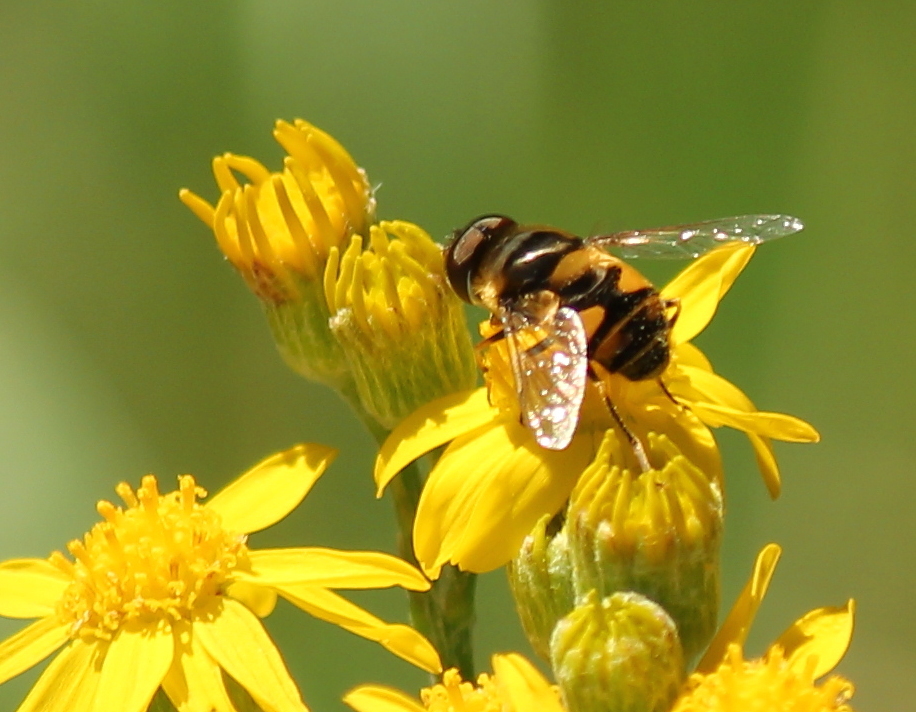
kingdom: Animalia
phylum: Arthropoda
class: Insecta
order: Diptera
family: Syrphidae
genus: Eristalis
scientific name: Eristalis transversa
